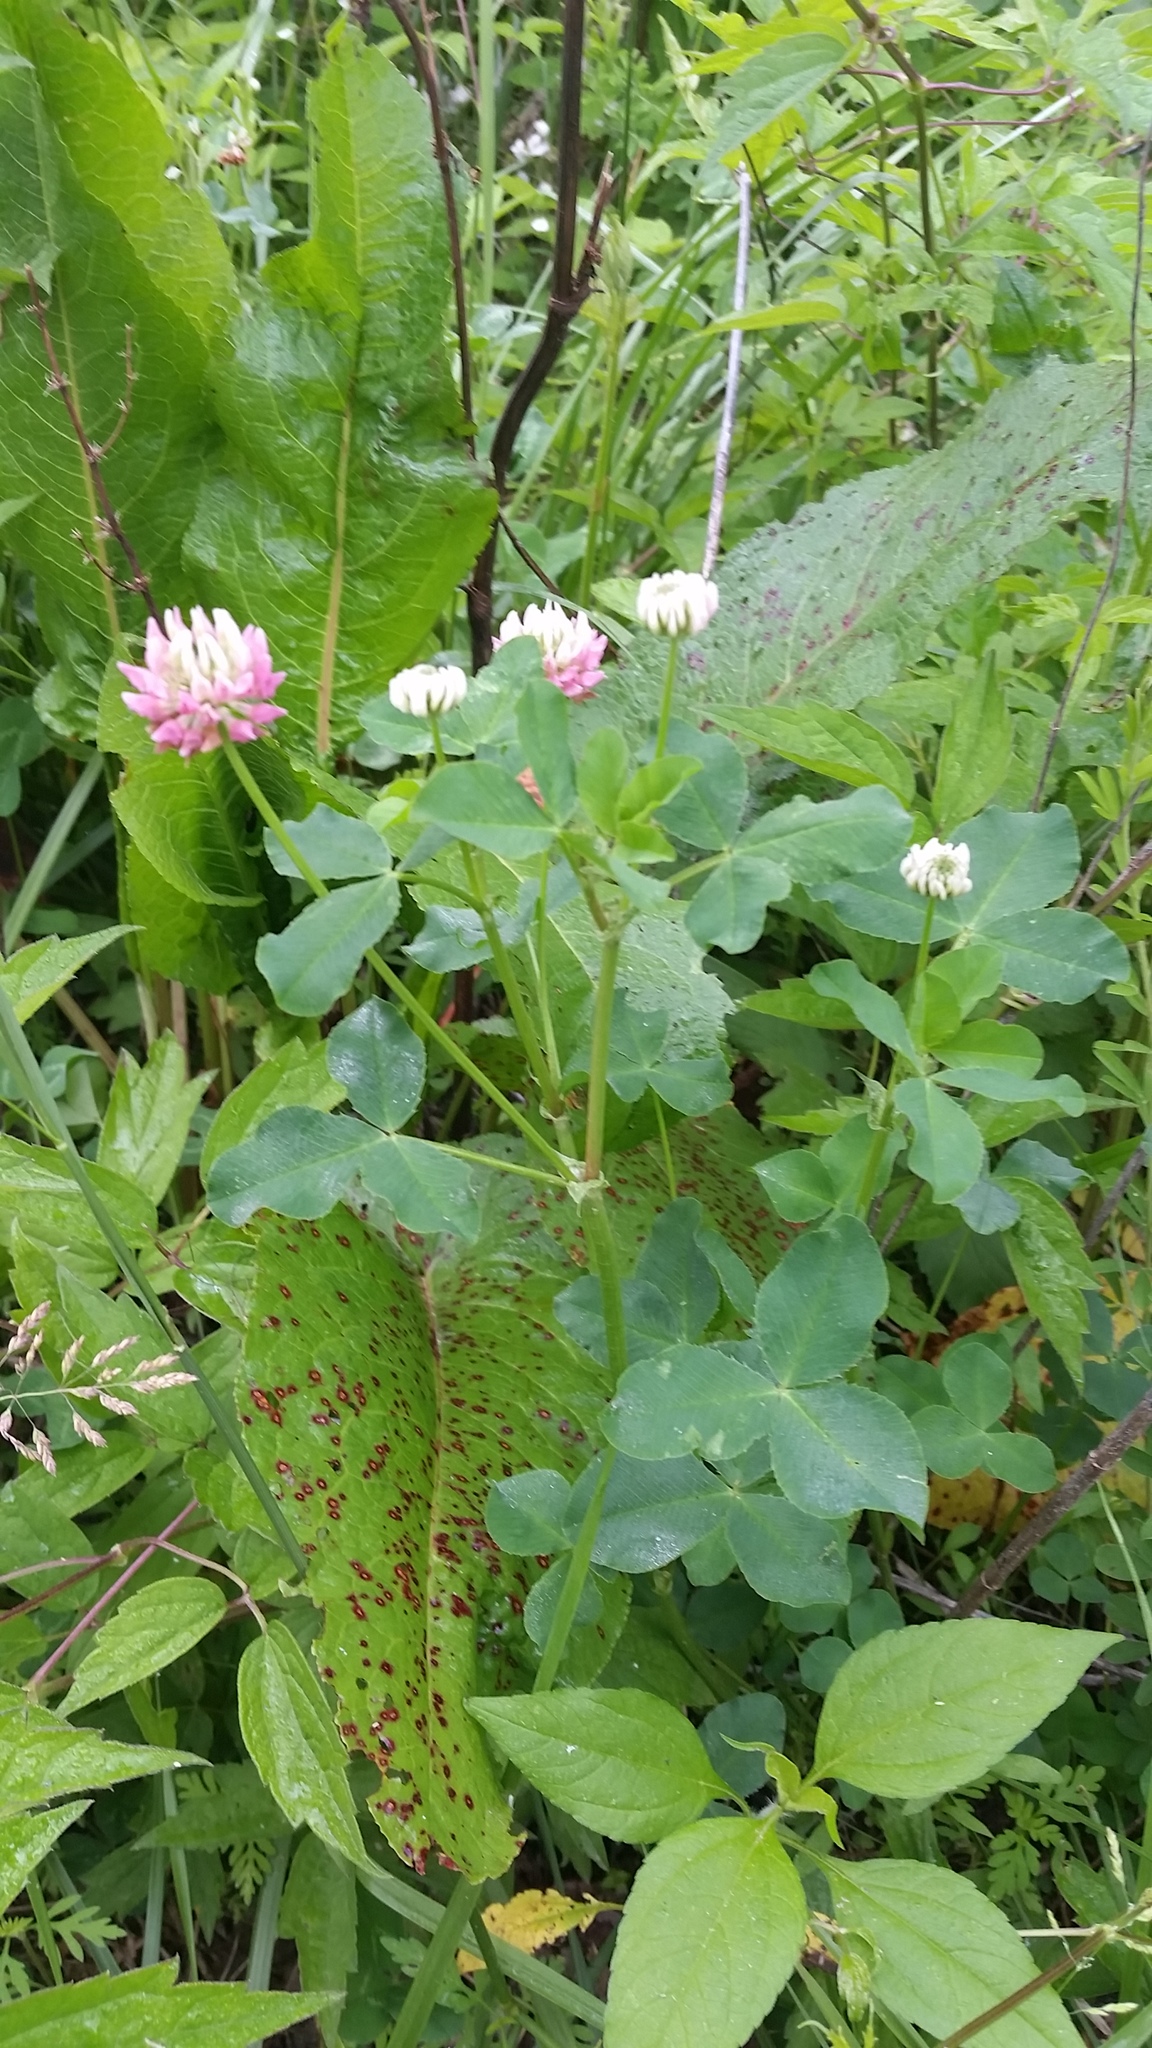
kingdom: Plantae
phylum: Tracheophyta
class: Magnoliopsida
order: Fabales
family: Fabaceae
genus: Trifolium
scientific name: Trifolium hybridum
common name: Alsike clover
